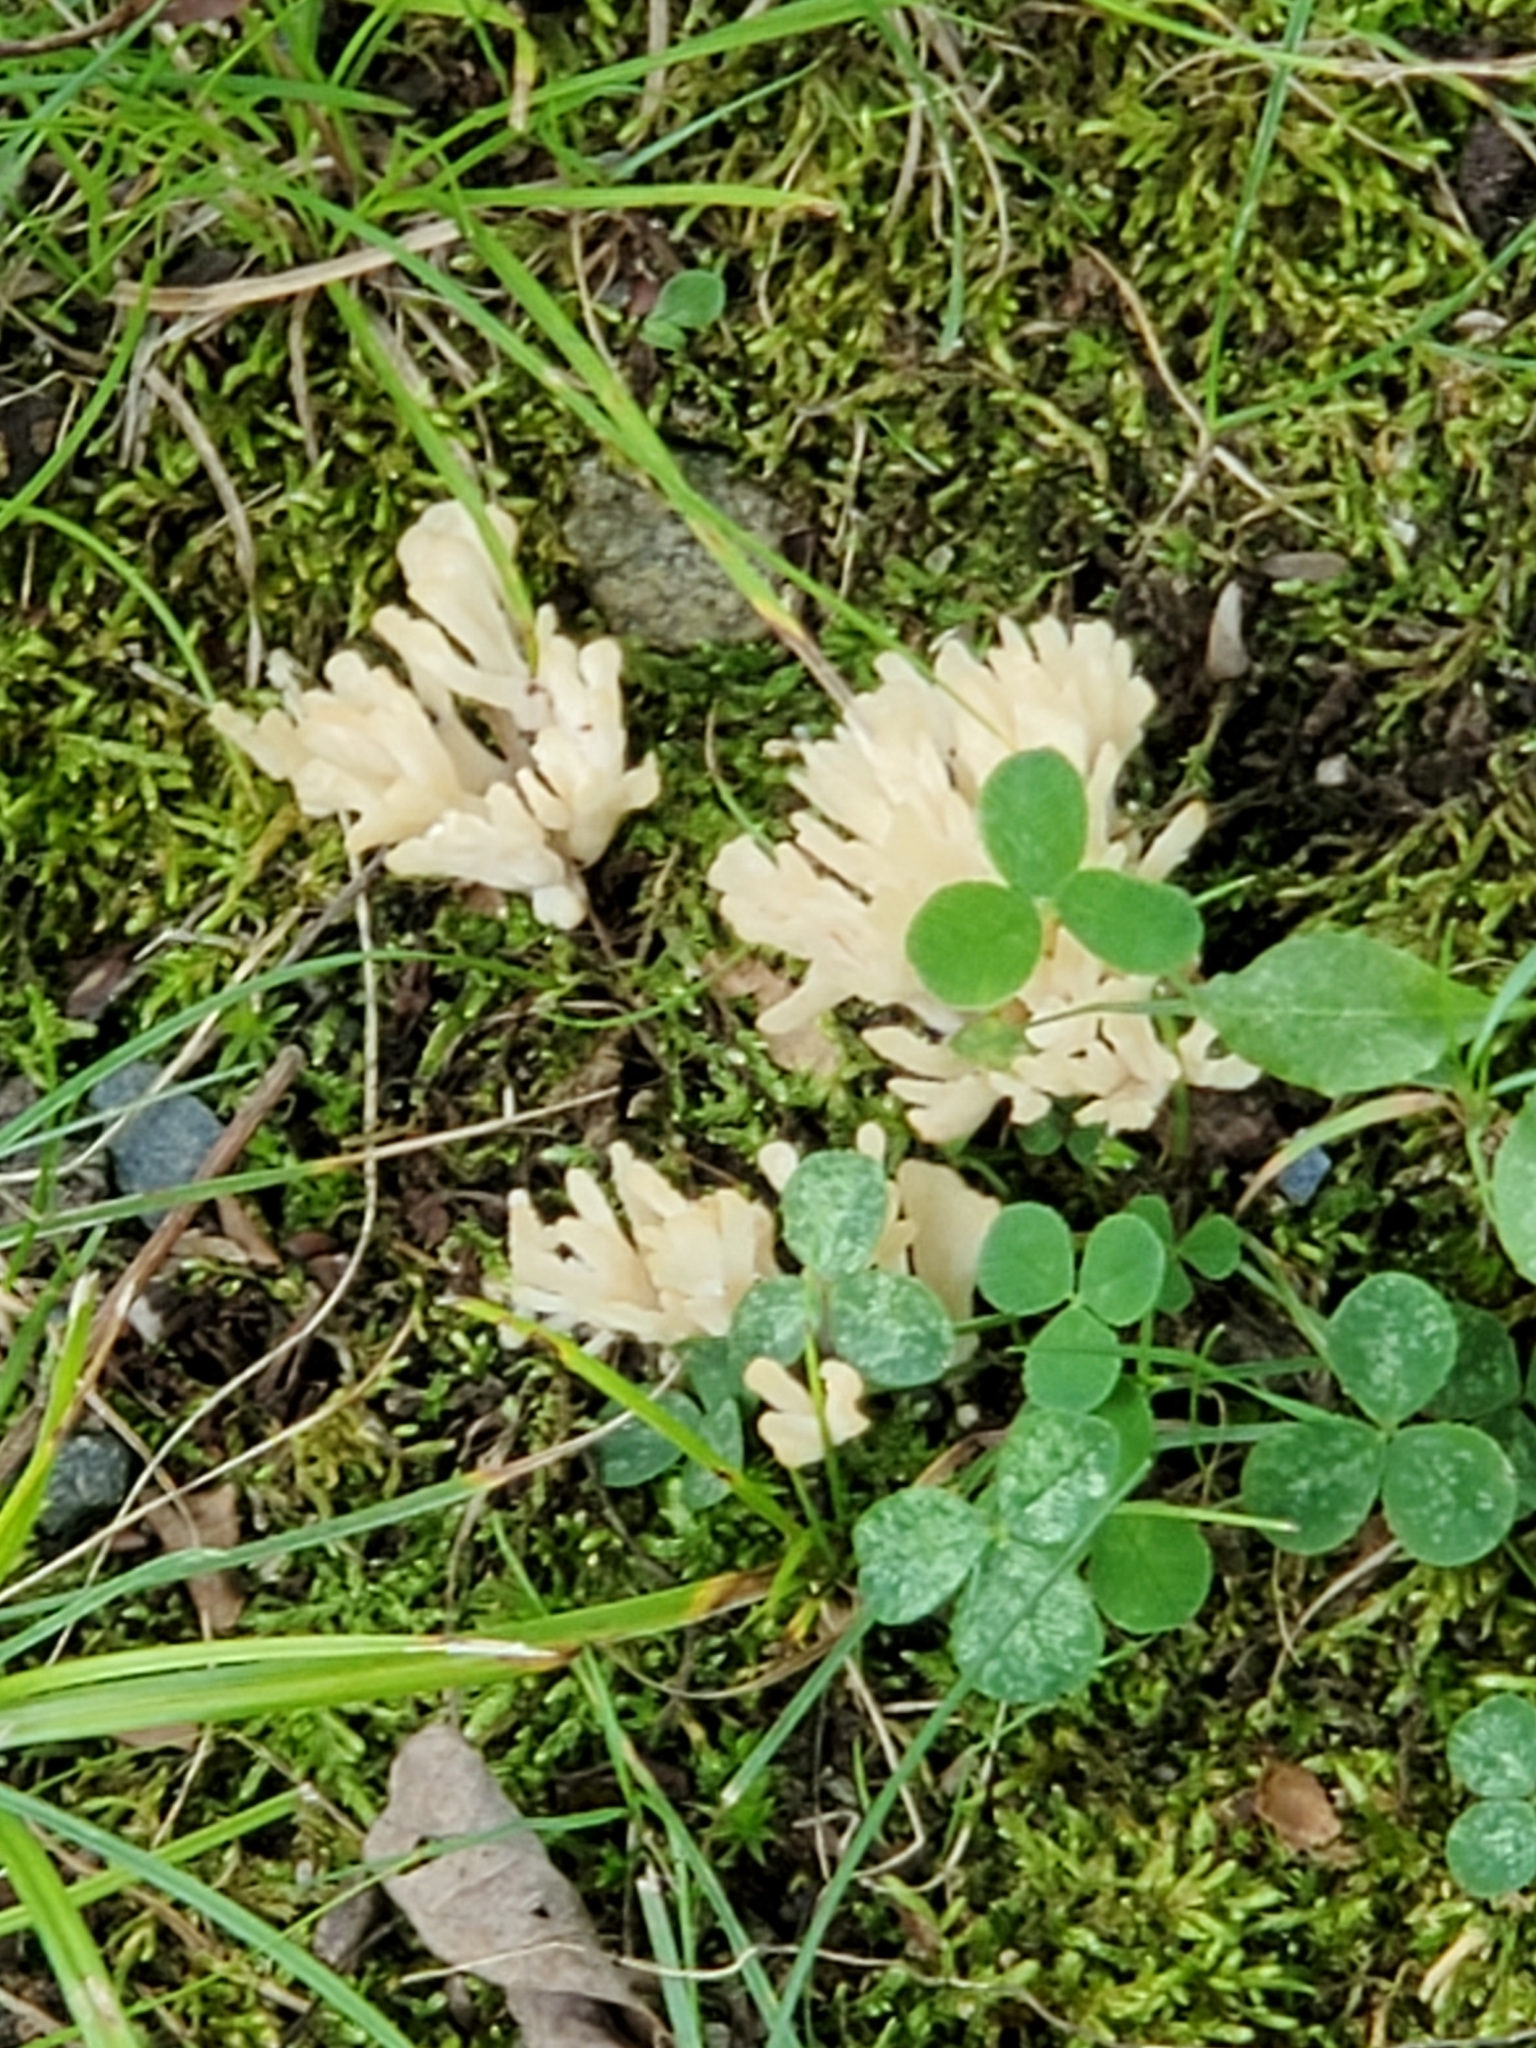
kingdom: Fungi
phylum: Basidiomycota
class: Agaricomycetes
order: Sebacinales
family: Sebacinaceae
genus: Sebacina
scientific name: Sebacina schweinitzii
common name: Jellied false coral fungus
